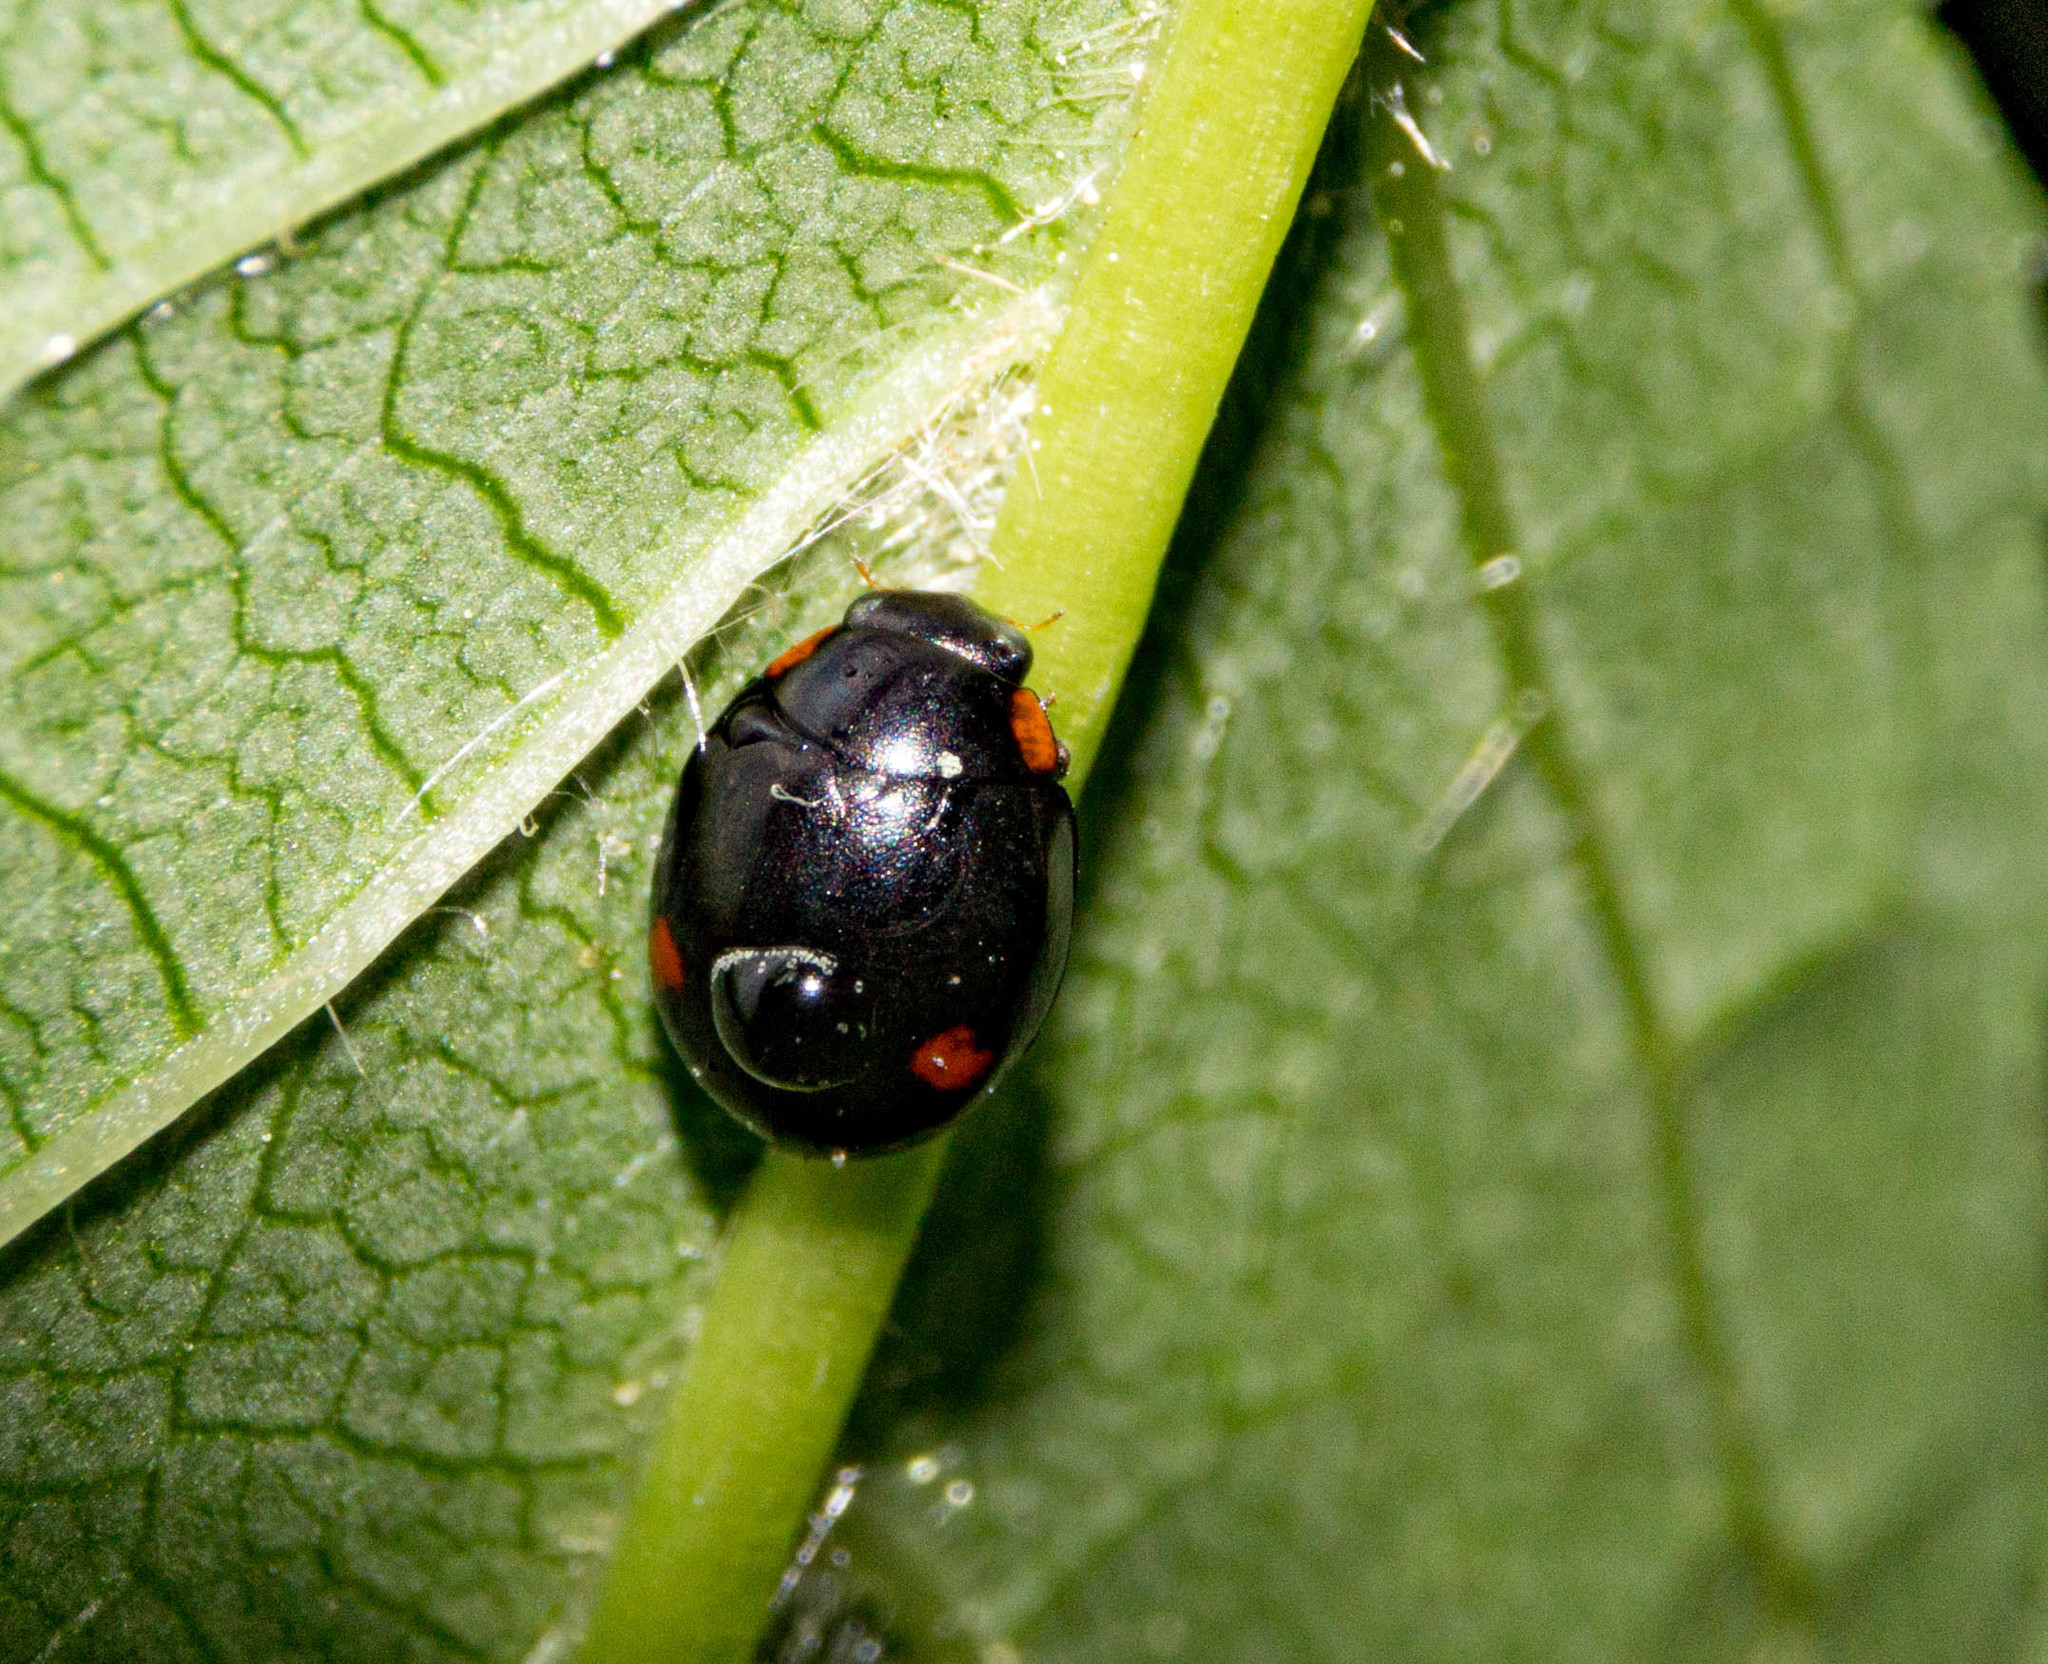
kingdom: Animalia
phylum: Arthropoda
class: Insecta
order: Coleoptera
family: Coccinellidae
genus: Hyperaspis
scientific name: Hyperaspis campestris
